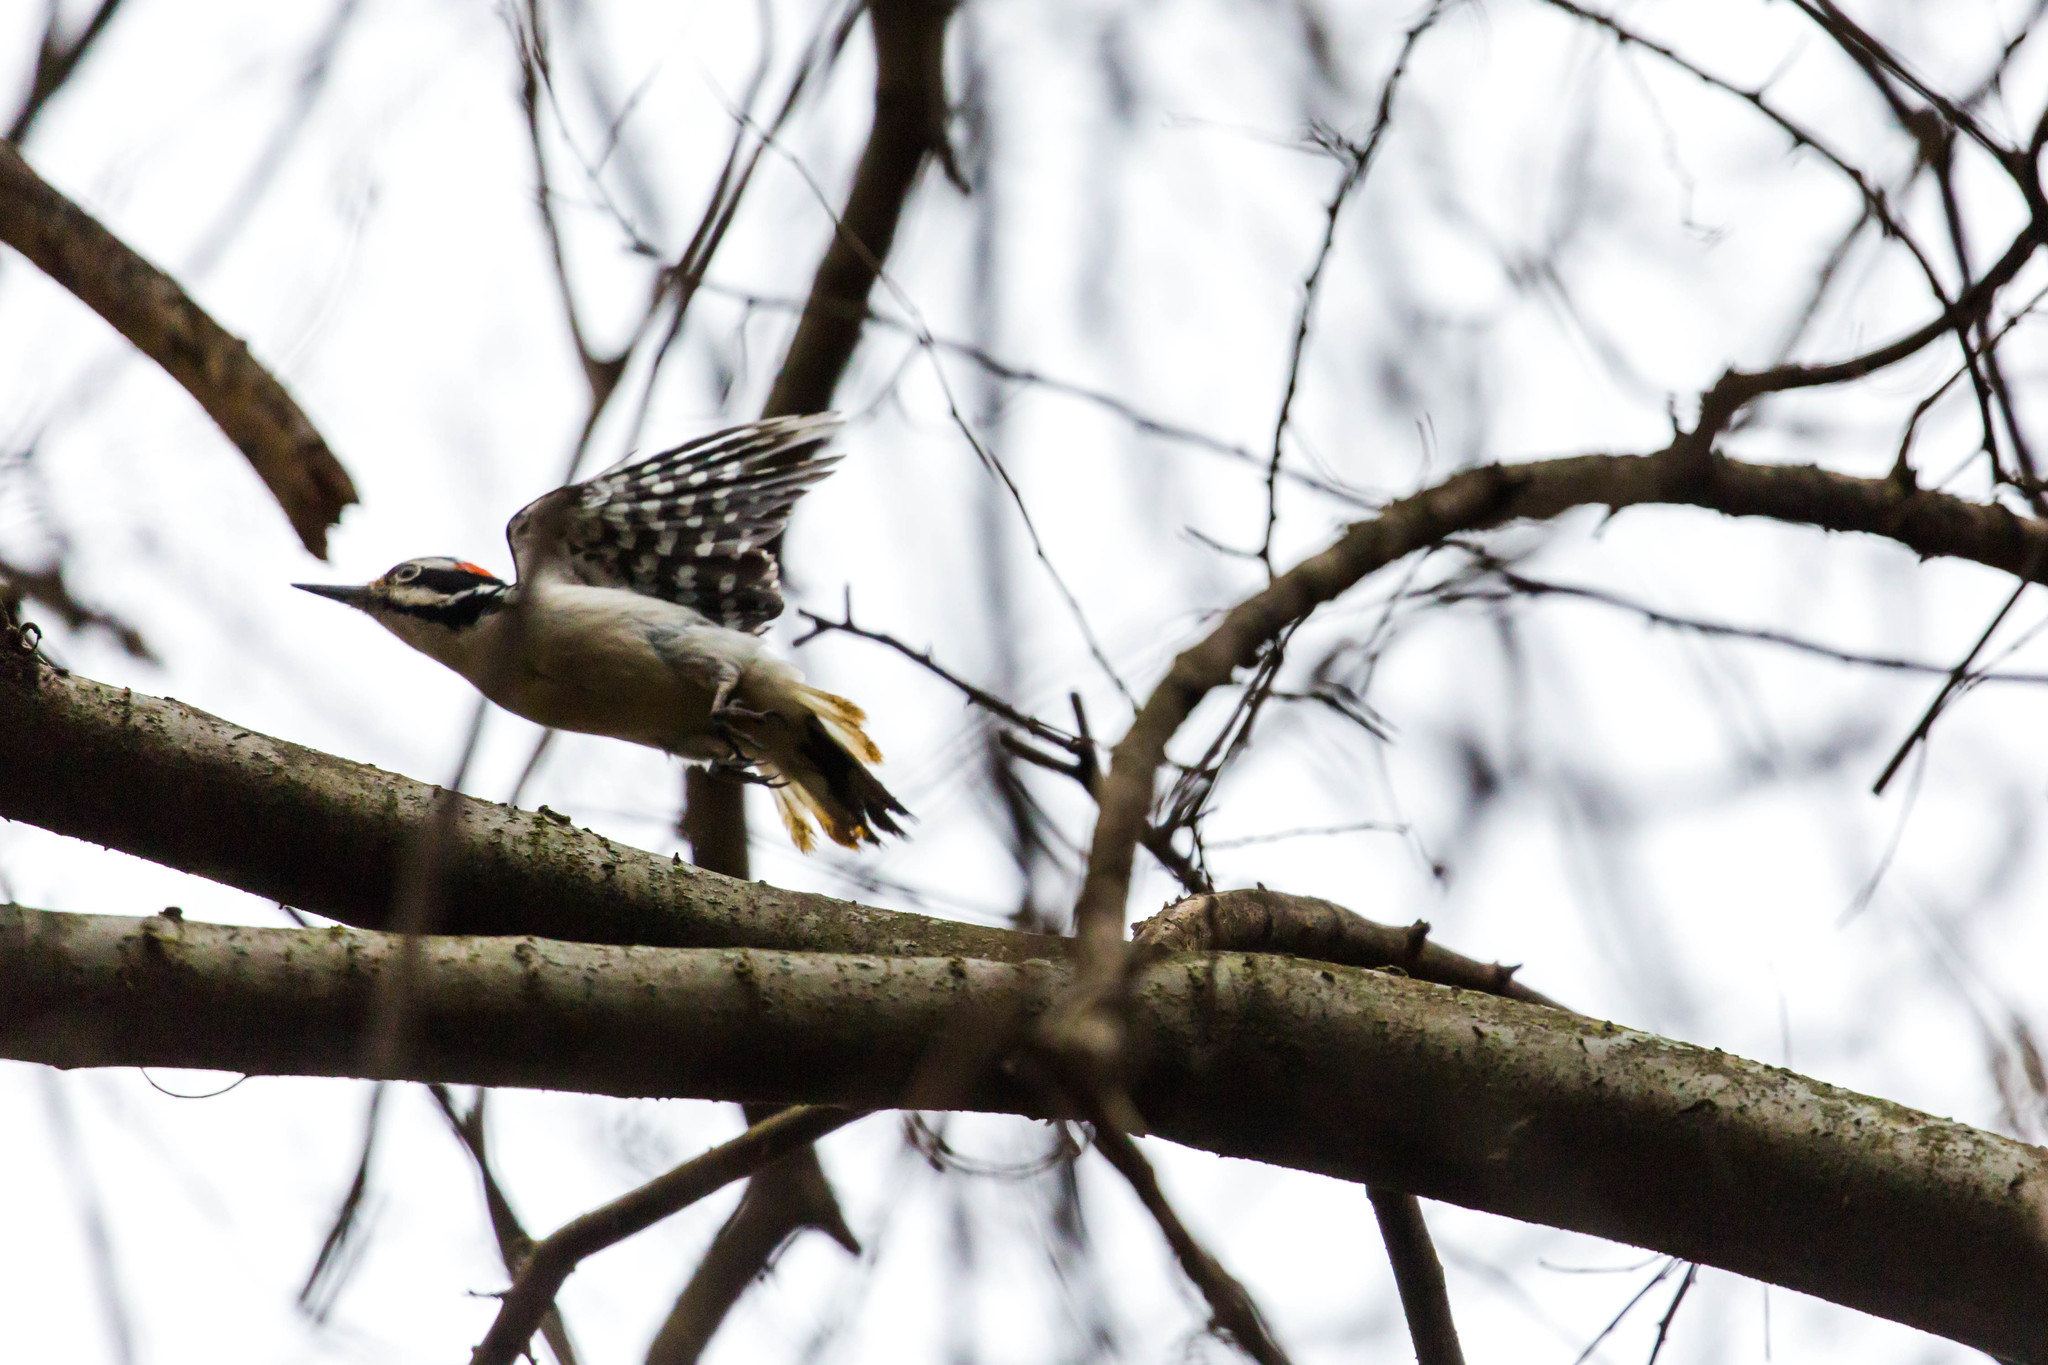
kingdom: Animalia
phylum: Chordata
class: Aves
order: Piciformes
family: Picidae
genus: Leuconotopicus
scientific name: Leuconotopicus villosus
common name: Hairy woodpecker
